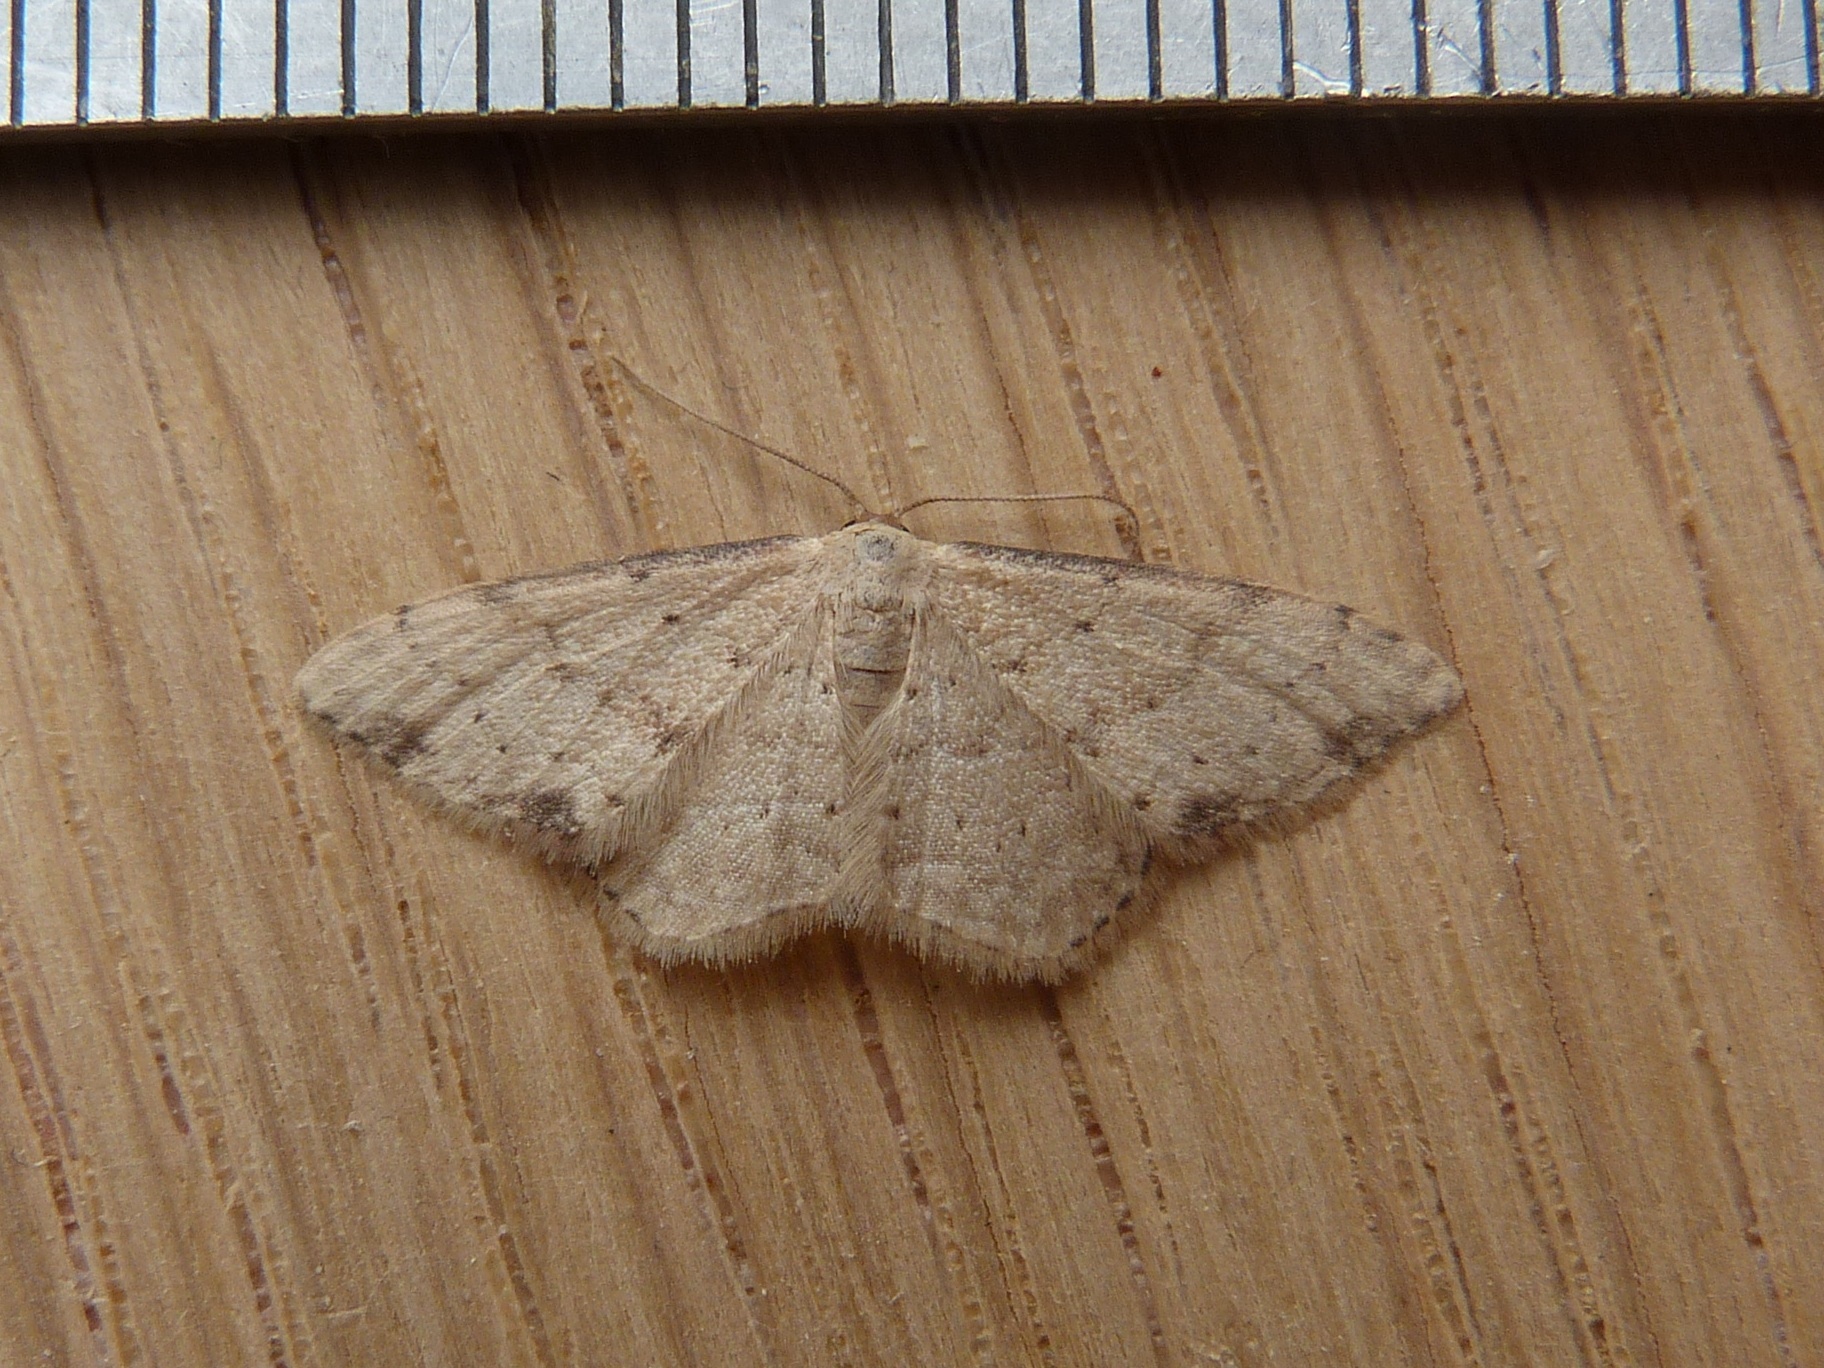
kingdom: Animalia
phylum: Arthropoda
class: Insecta
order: Lepidoptera
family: Geometridae
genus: Idaea
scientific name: Idaea halmaea
